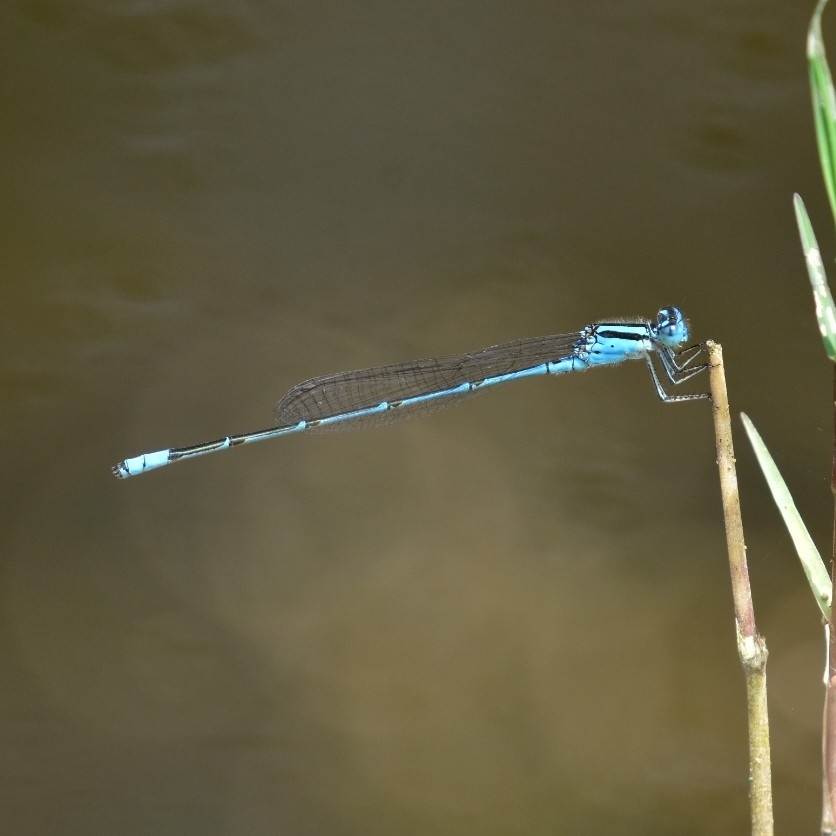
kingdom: Animalia
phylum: Arthropoda
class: Insecta
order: Odonata
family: Coenagrionidae
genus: Pseudagrion
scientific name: Pseudagrion australasiae
